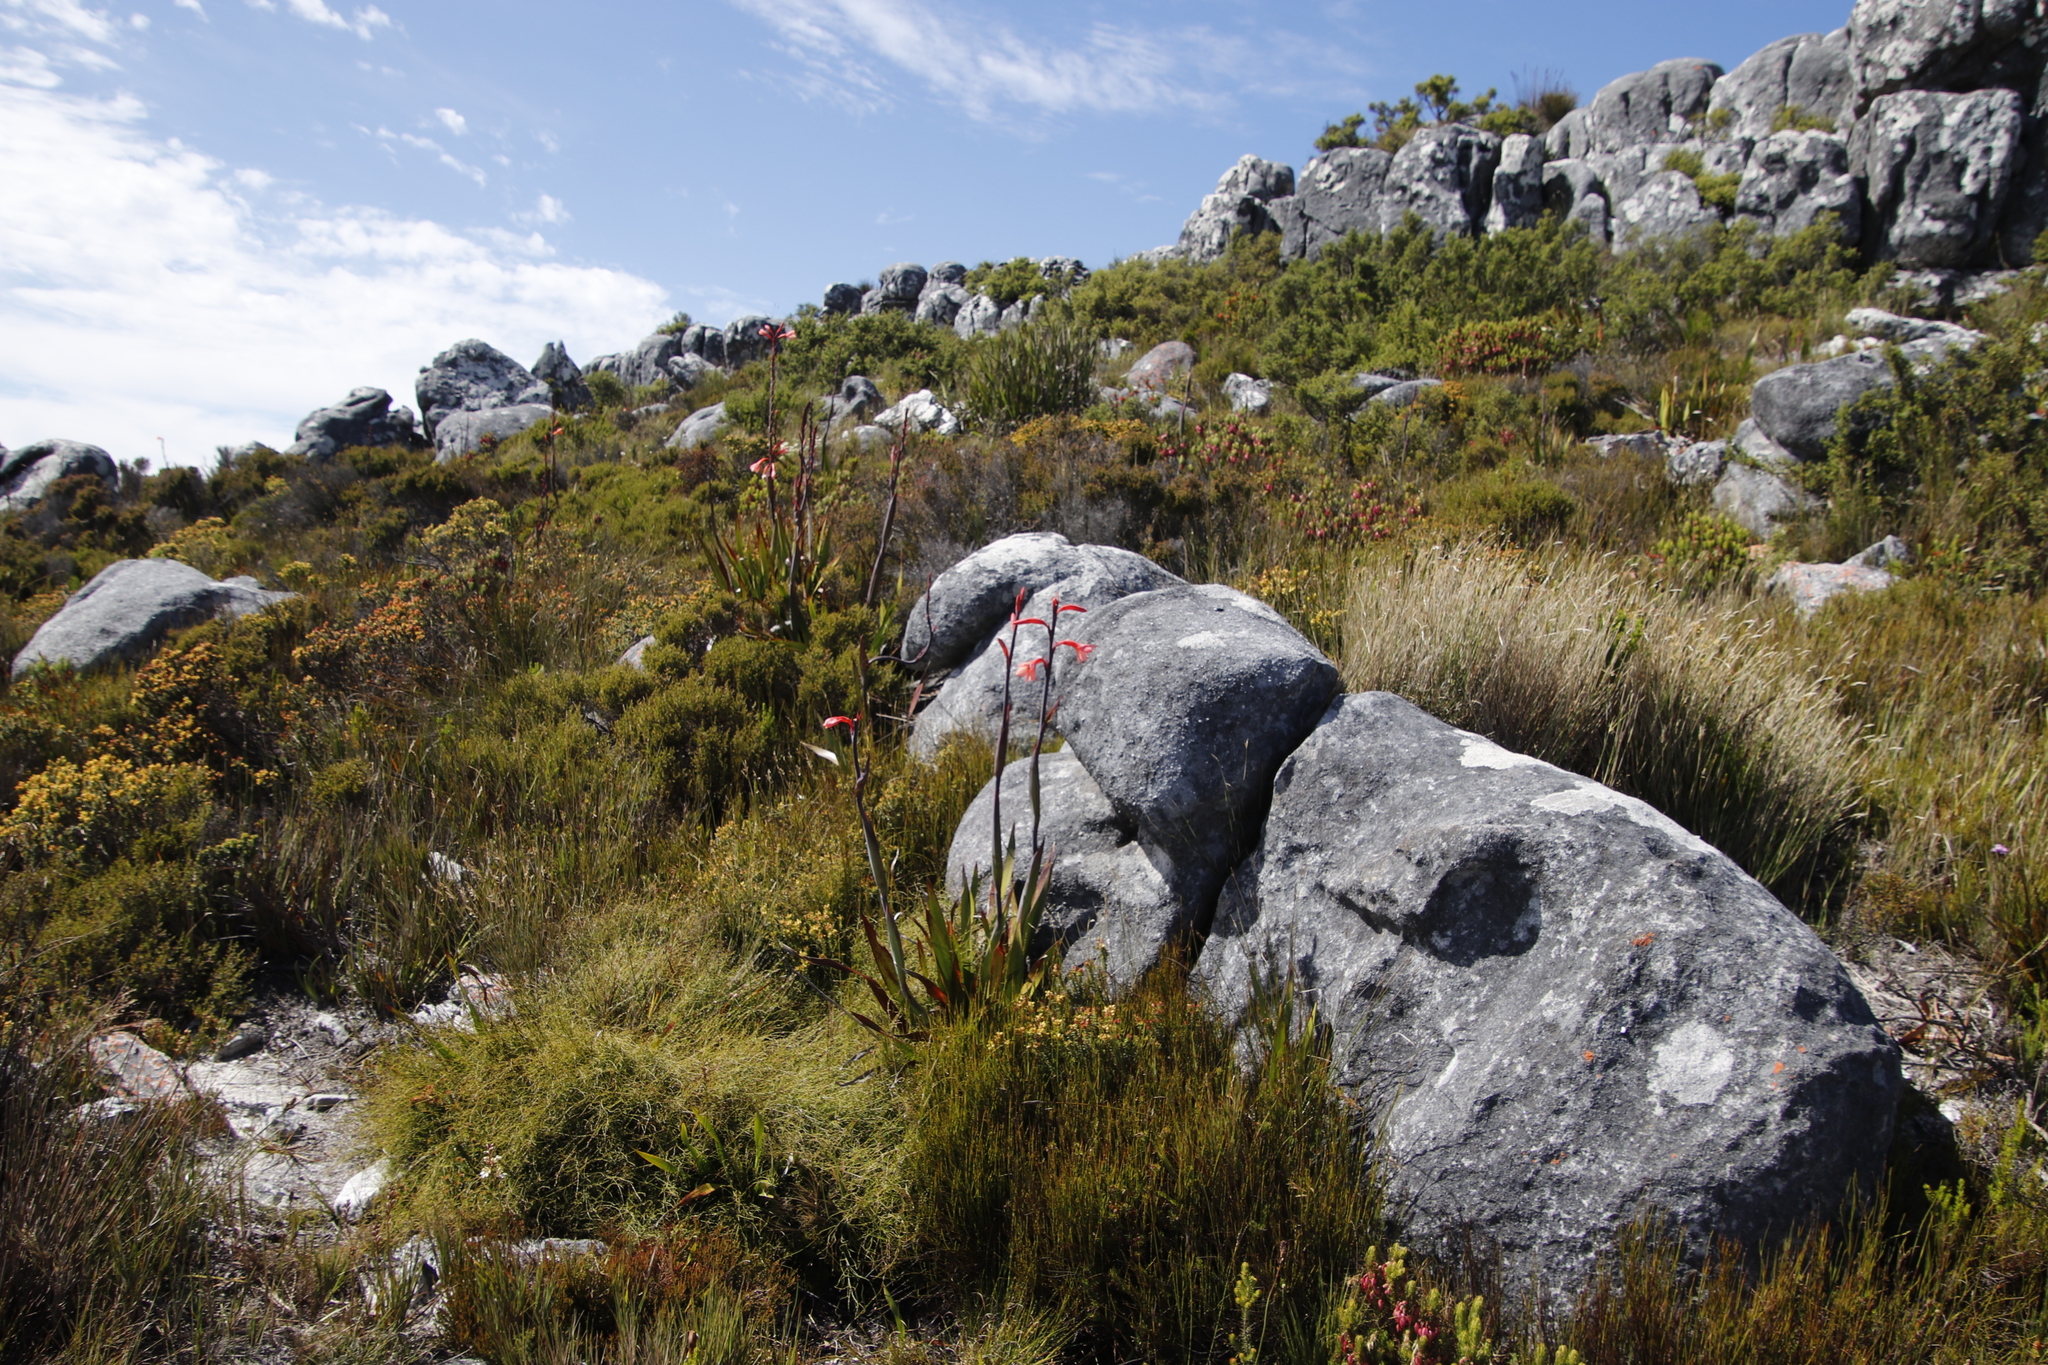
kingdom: Plantae
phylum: Tracheophyta
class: Liliopsida
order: Asparagales
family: Iridaceae
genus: Watsonia
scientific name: Watsonia tabularis
